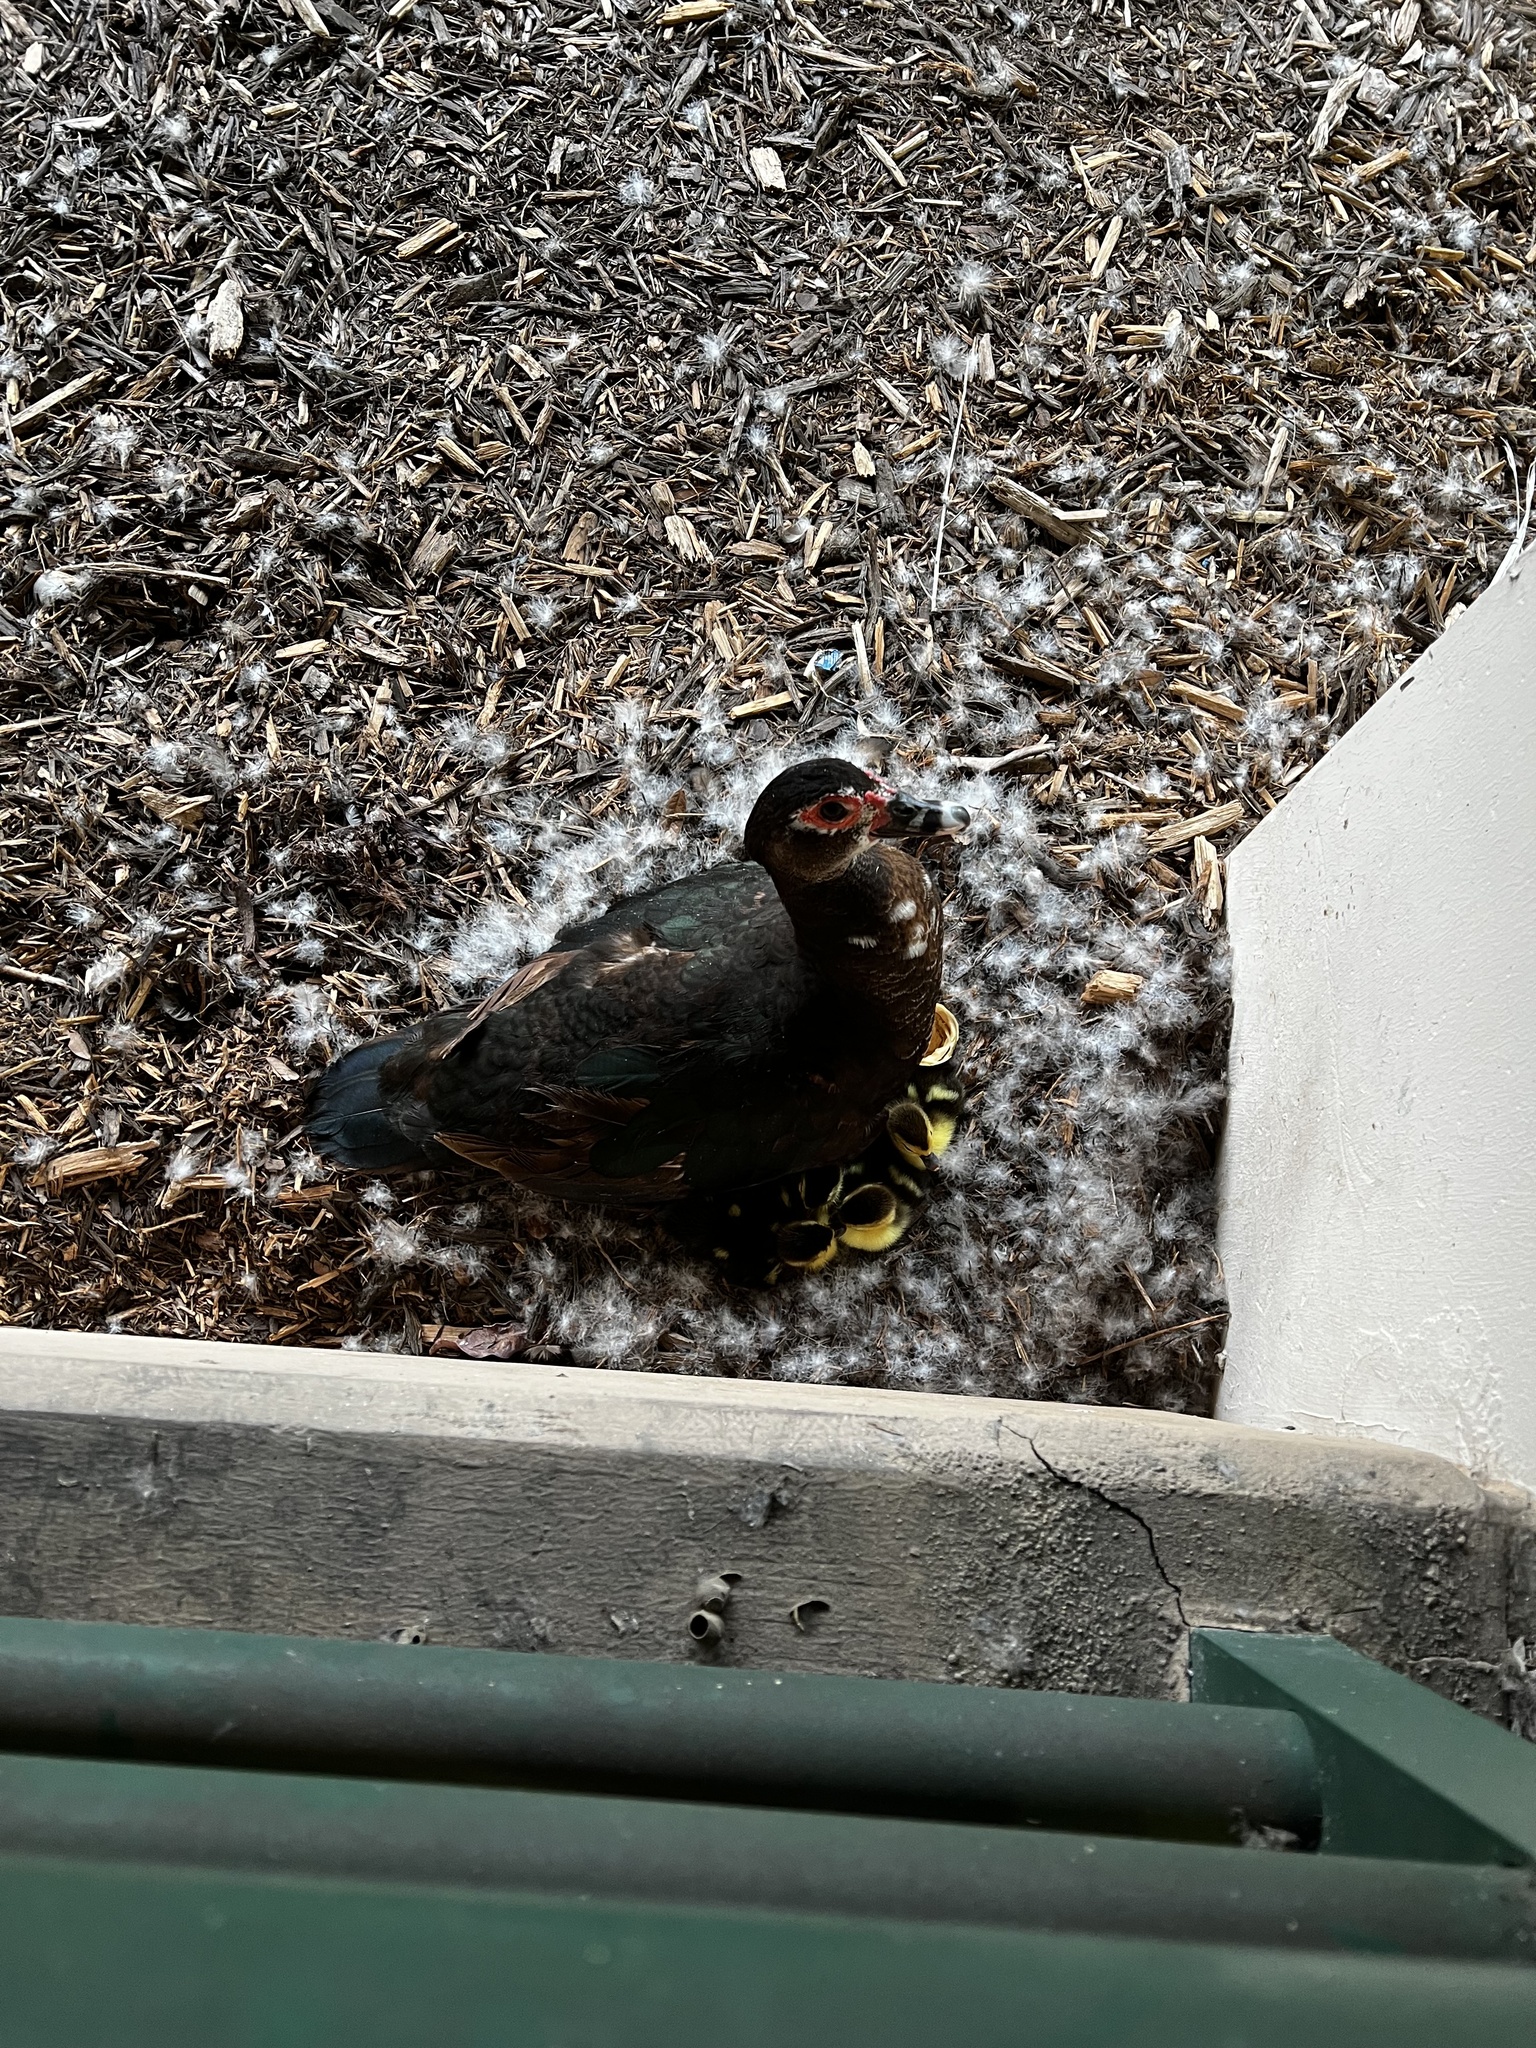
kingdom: Animalia
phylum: Chordata
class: Aves
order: Anseriformes
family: Anatidae
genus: Cairina
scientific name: Cairina moschata
